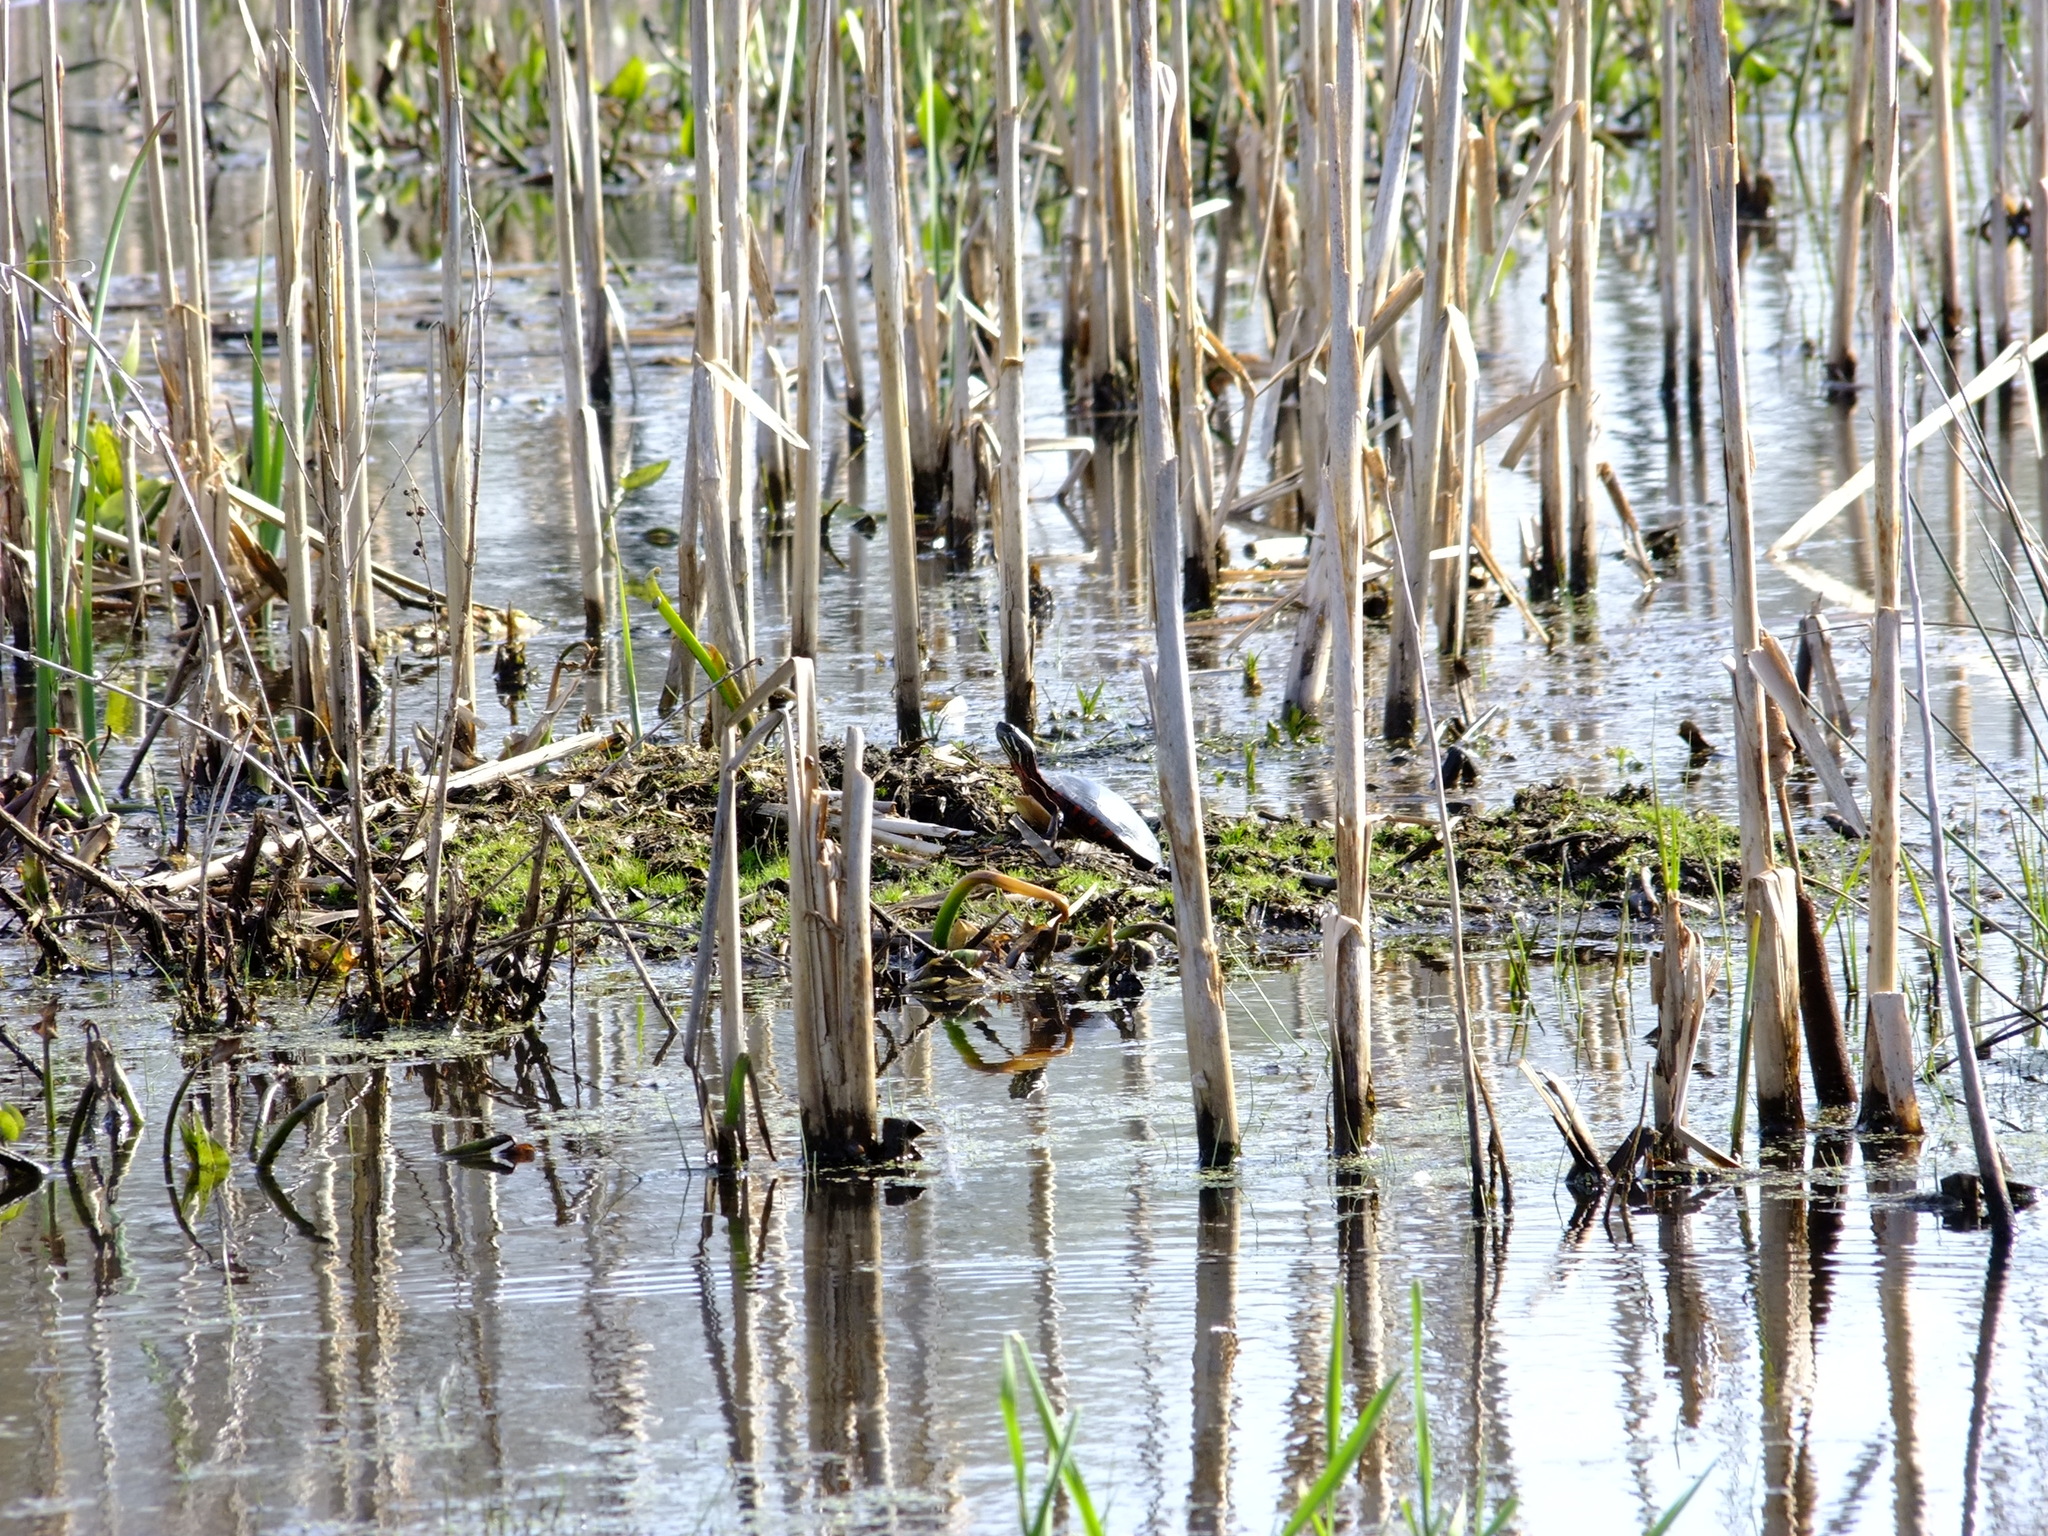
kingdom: Animalia
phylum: Chordata
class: Testudines
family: Emydidae
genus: Chrysemys
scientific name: Chrysemys picta
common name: Painted turtle
